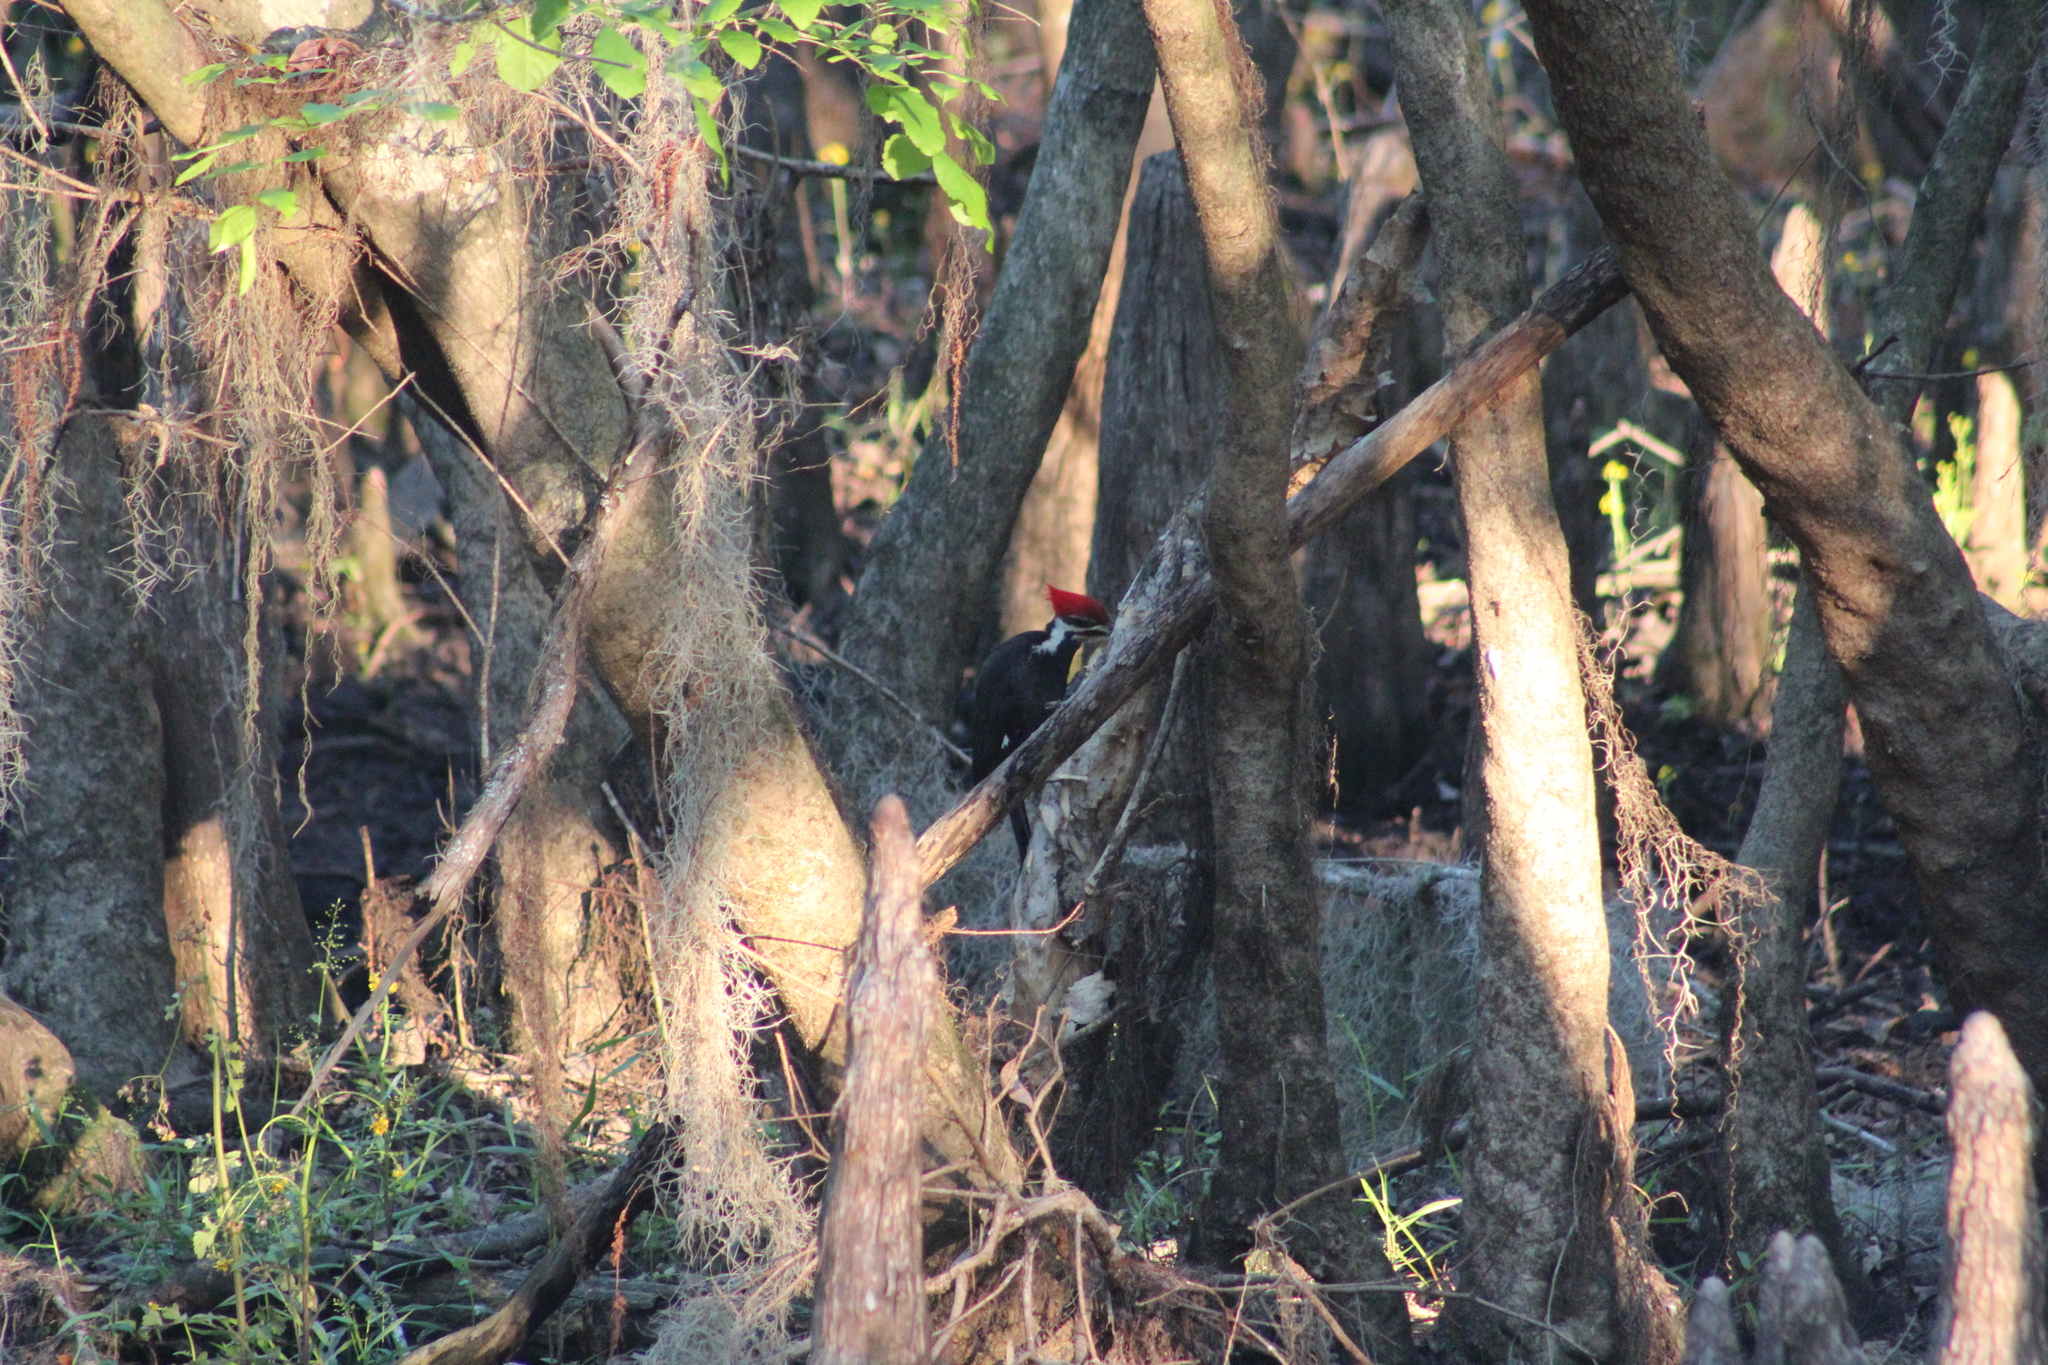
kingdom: Animalia
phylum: Chordata
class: Aves
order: Piciformes
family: Picidae
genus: Dryocopus
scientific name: Dryocopus pileatus
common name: Pileated woodpecker
